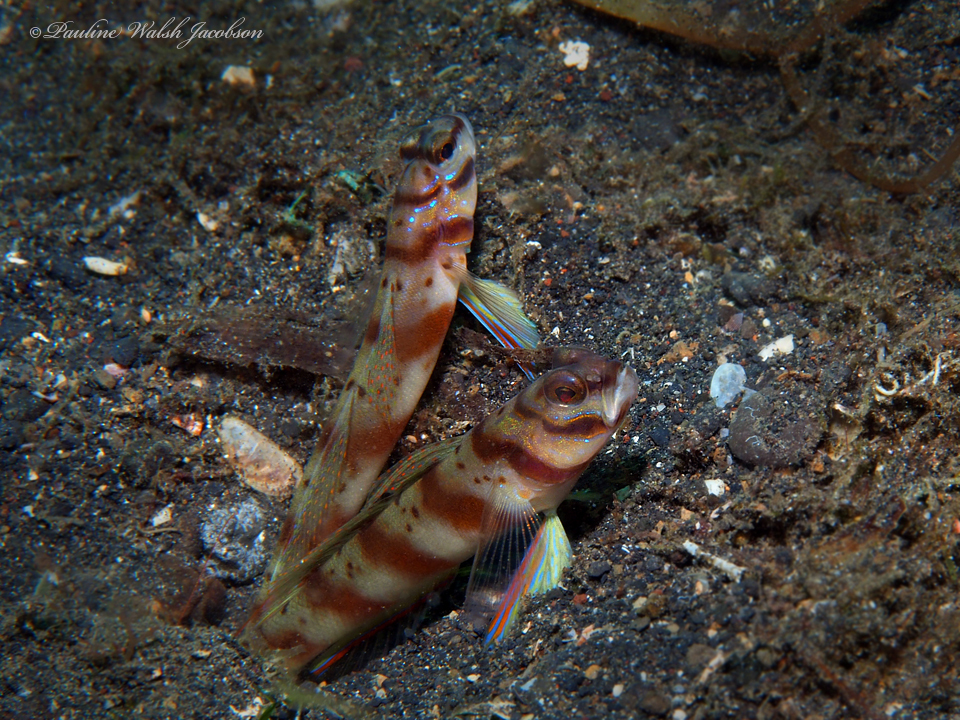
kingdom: Animalia
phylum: Chordata
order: Perciformes
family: Gobiidae
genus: Amblyeleotris
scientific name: Amblyeleotris diagonalis
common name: Diagonal shrimp goby
